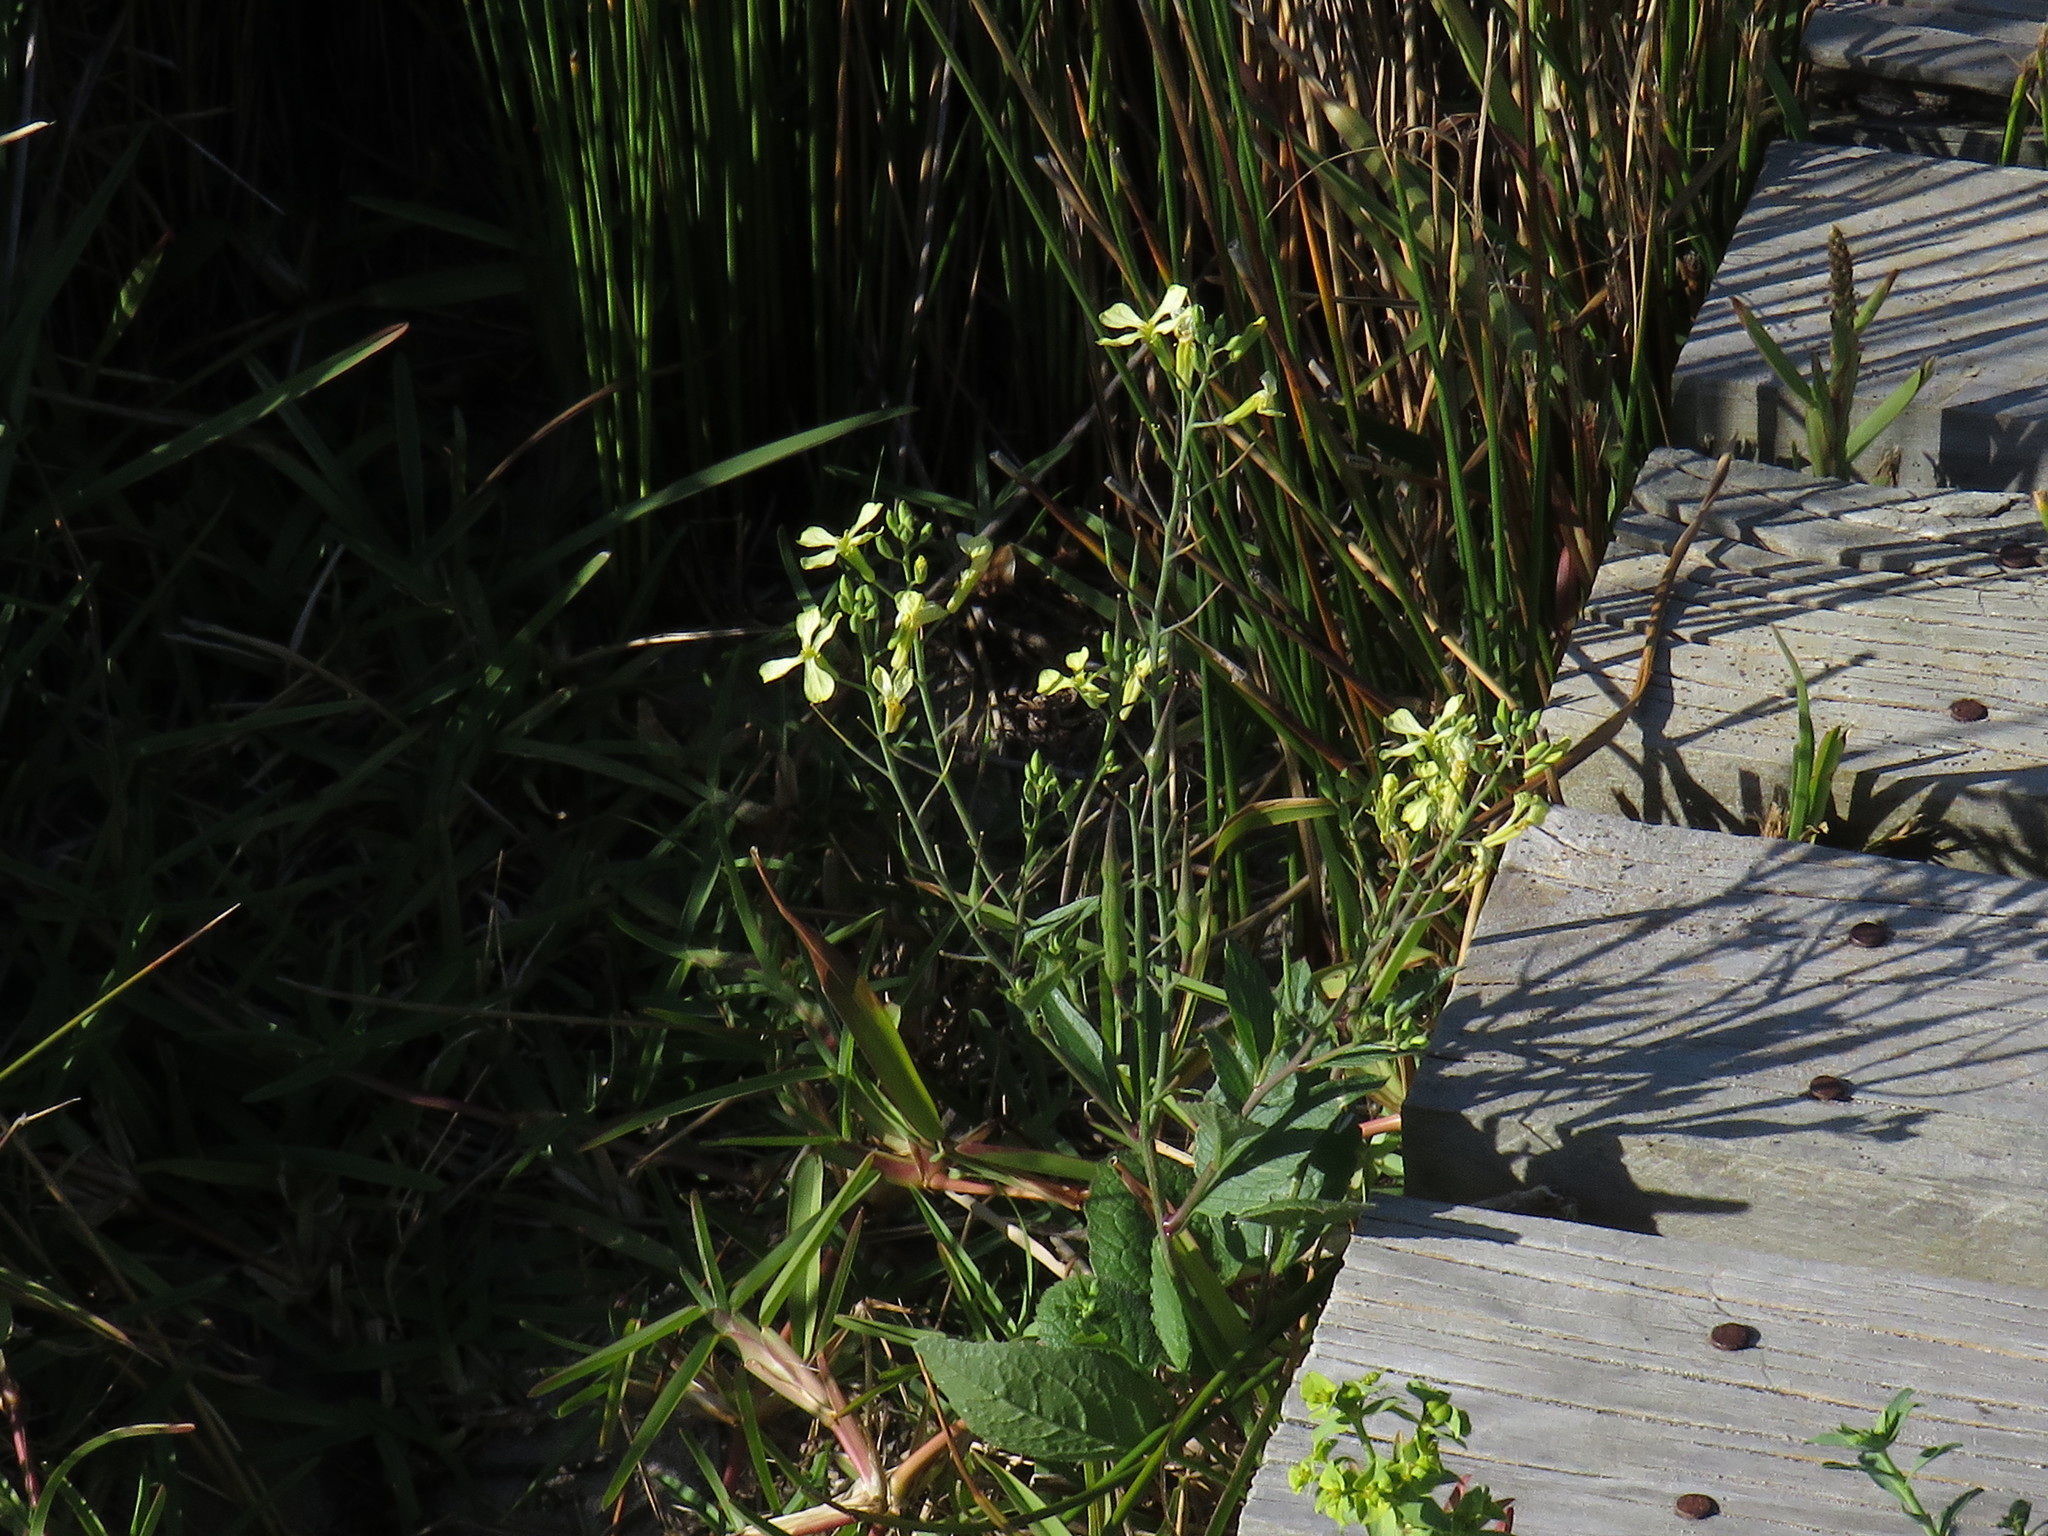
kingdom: Plantae
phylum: Tracheophyta
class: Magnoliopsida
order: Brassicales
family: Brassicaceae
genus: Raphanus
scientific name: Raphanus raphanistrum
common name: Wild radish
